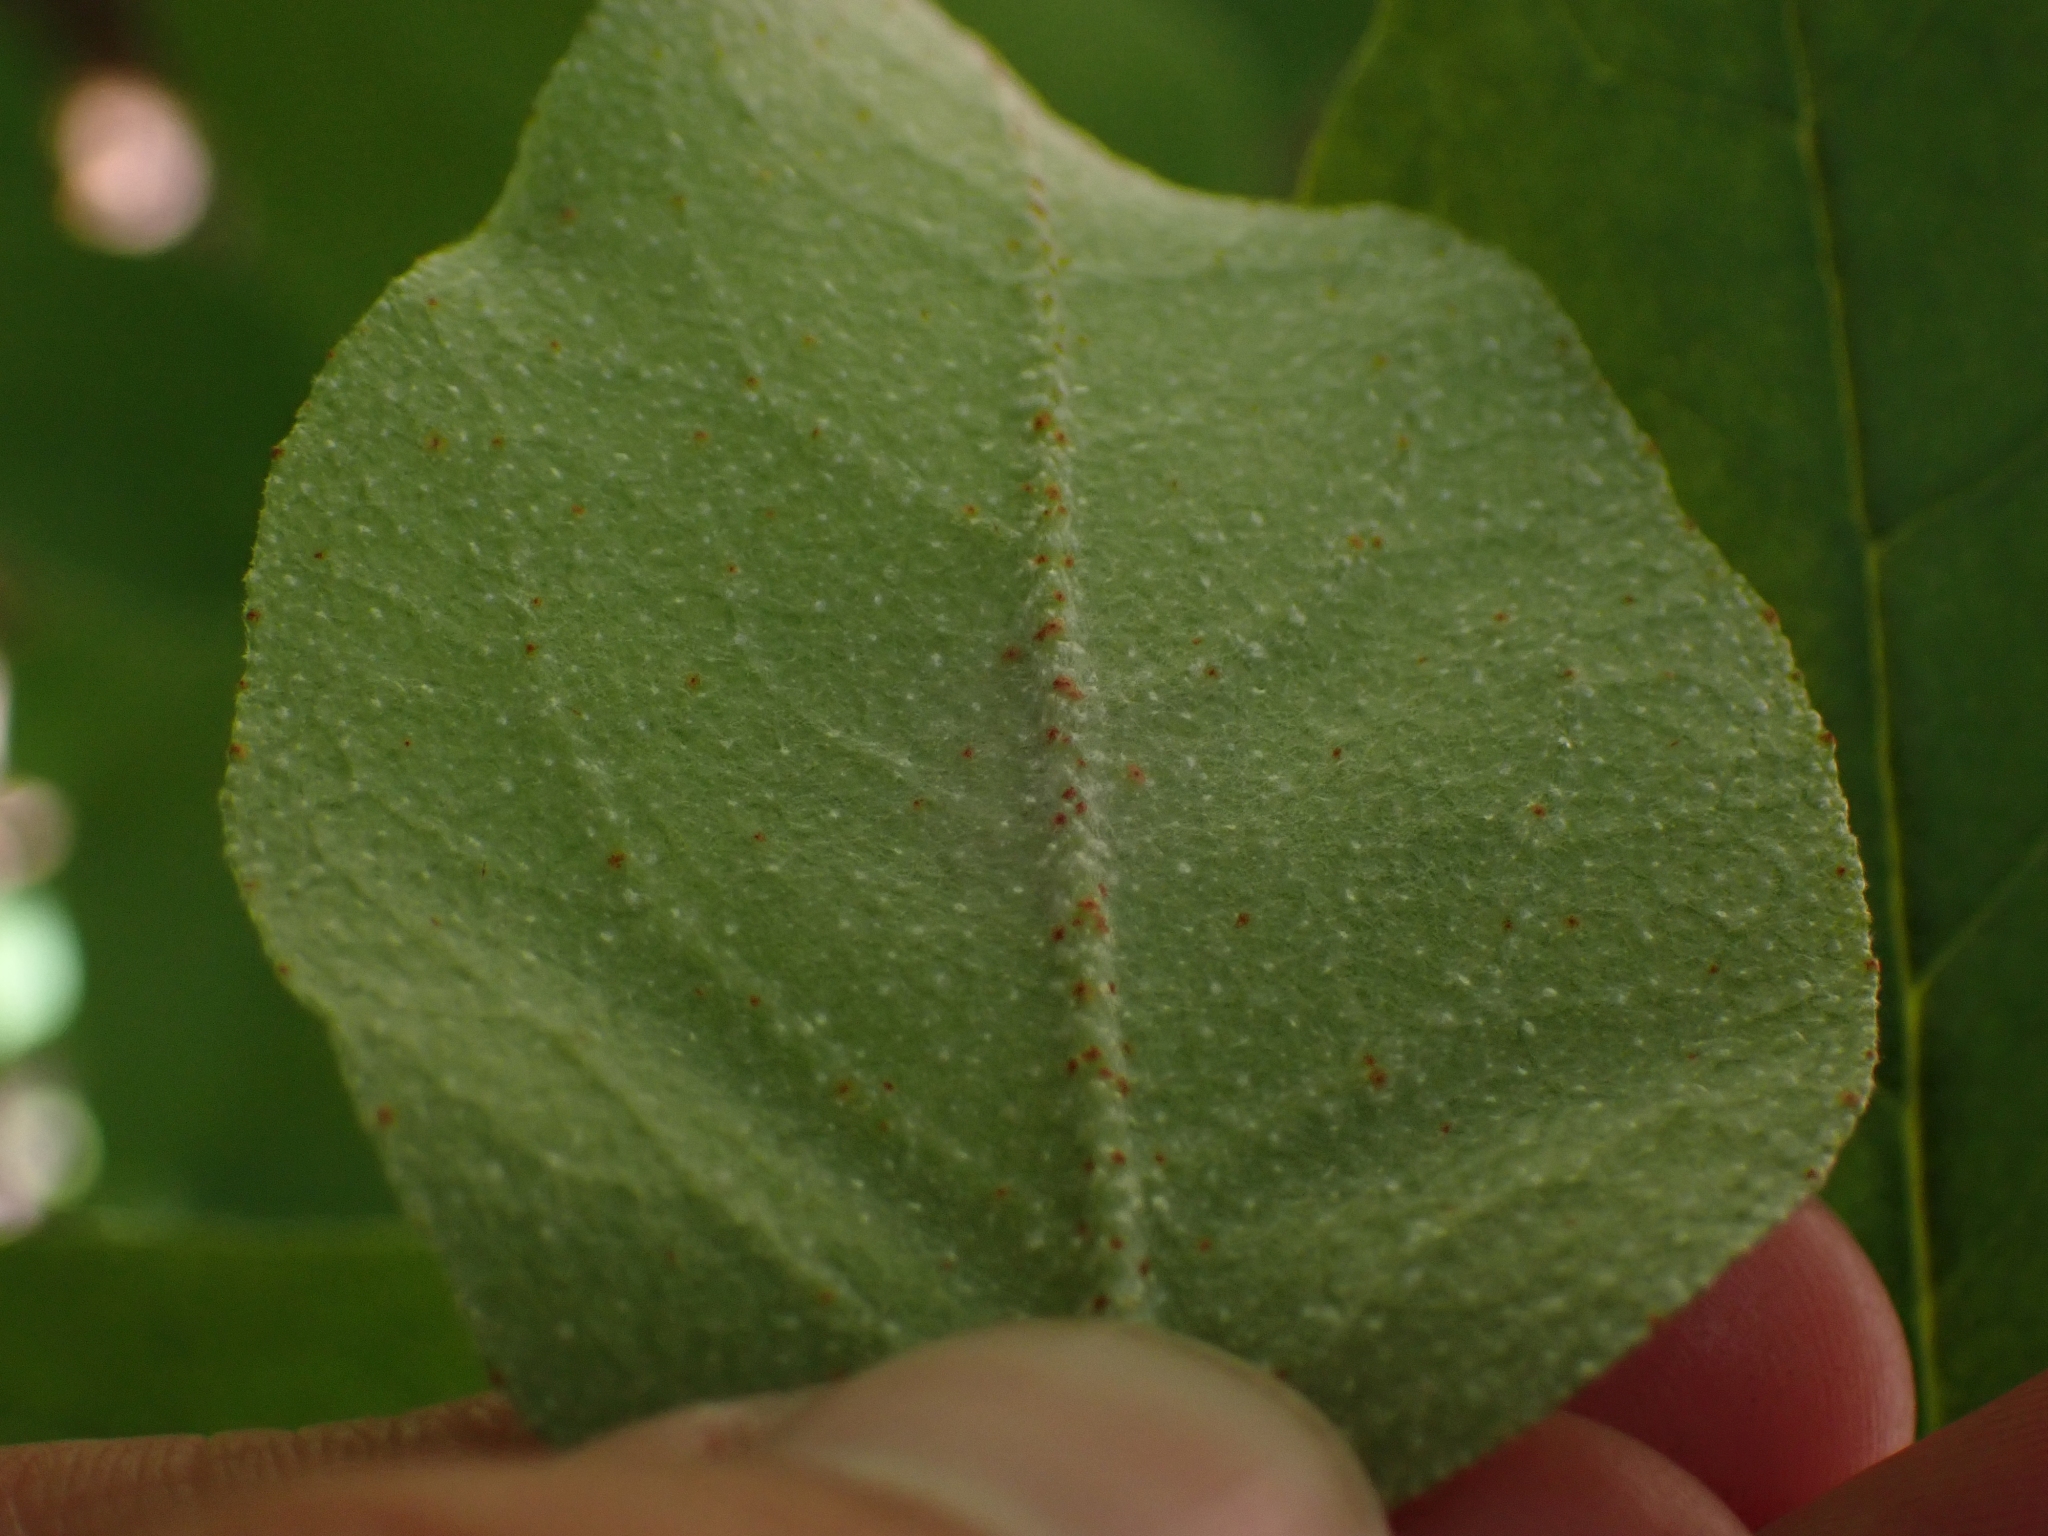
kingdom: Plantae
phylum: Tracheophyta
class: Magnoliopsida
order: Rosales
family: Elaeagnaceae
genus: Shepherdia
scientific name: Shepherdia canadensis
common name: Soapberry
